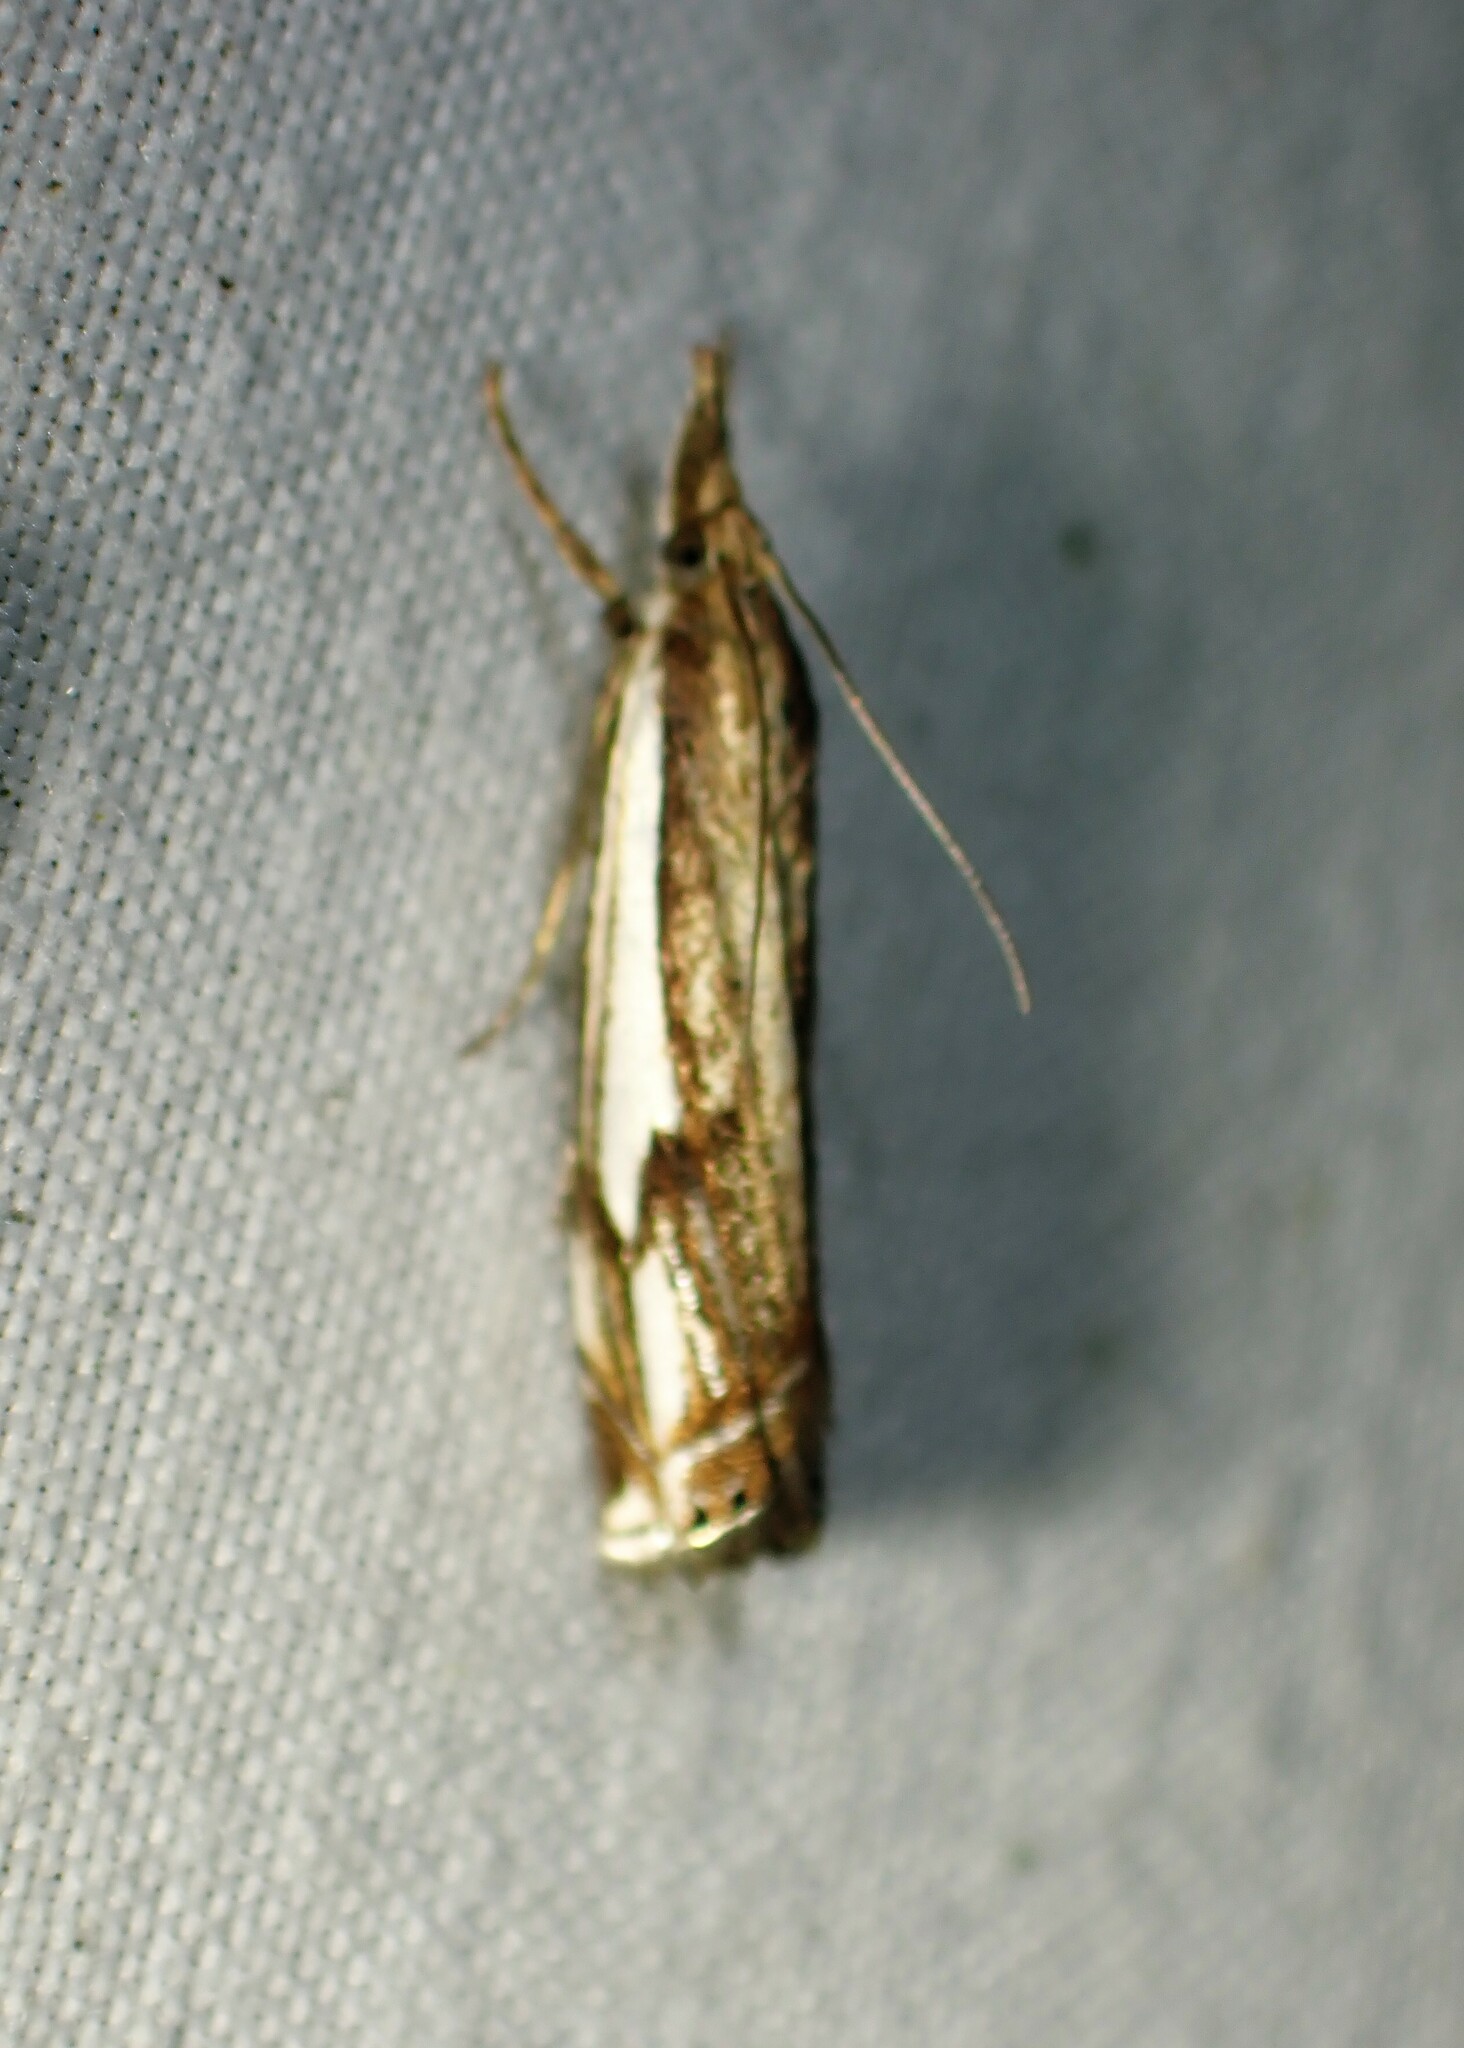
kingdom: Animalia
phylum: Arthropoda
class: Insecta
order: Lepidoptera
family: Crambidae
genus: Crambus
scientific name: Crambus agitatellus
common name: Double-banded grass-veneer
